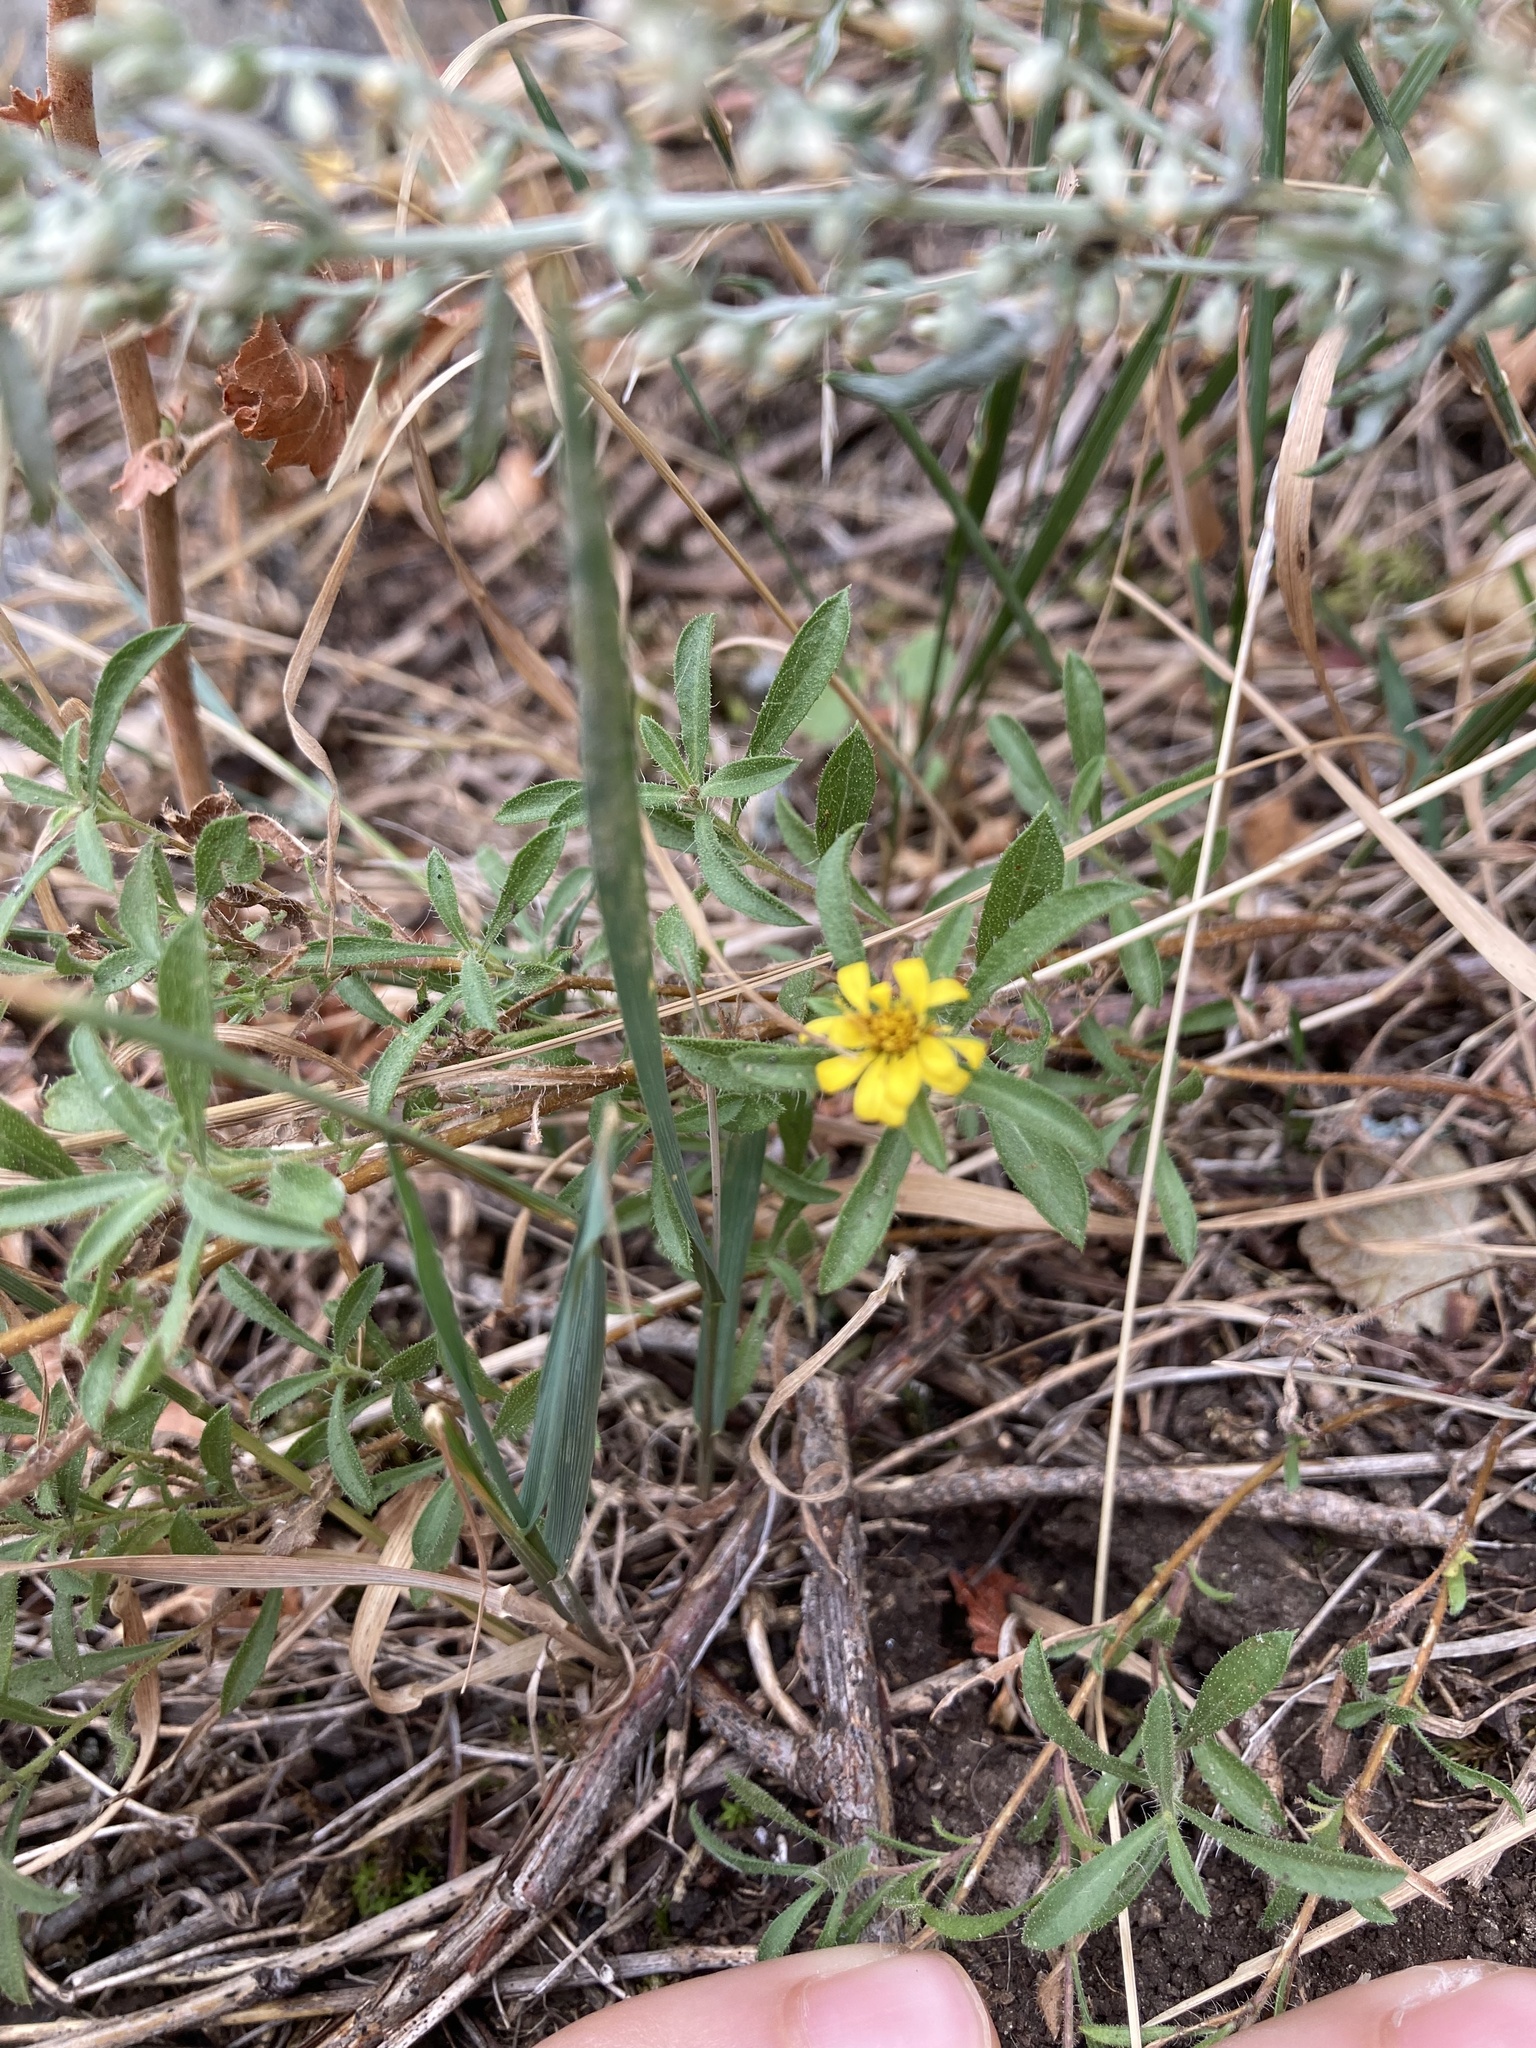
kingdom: Plantae
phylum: Tracheophyta
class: Magnoliopsida
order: Asterales
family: Asteraceae
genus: Heterotheca
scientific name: Heterotheca hirsuta
